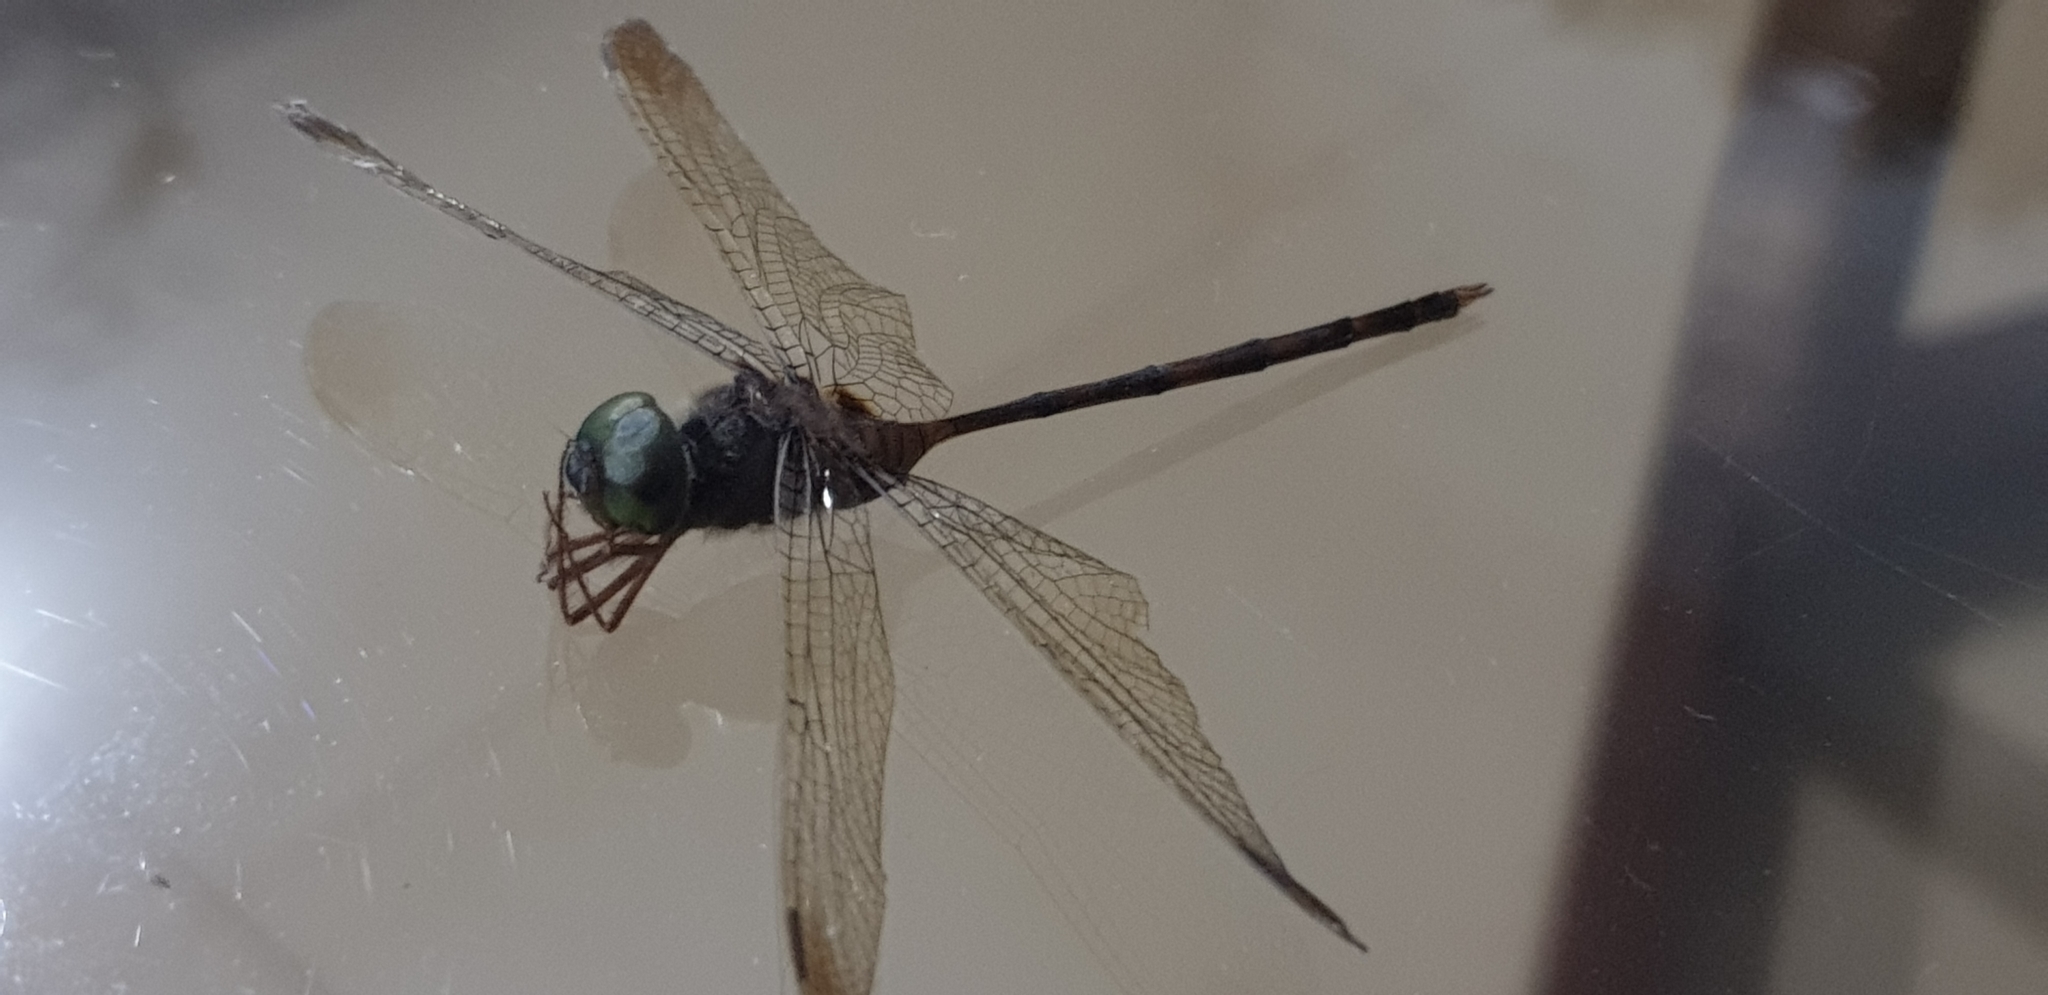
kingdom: Animalia
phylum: Arthropoda
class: Insecta
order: Odonata
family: Libellulidae
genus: Zyxomma
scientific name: Zyxomma petiolatum
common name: Dingy dusk-darter
